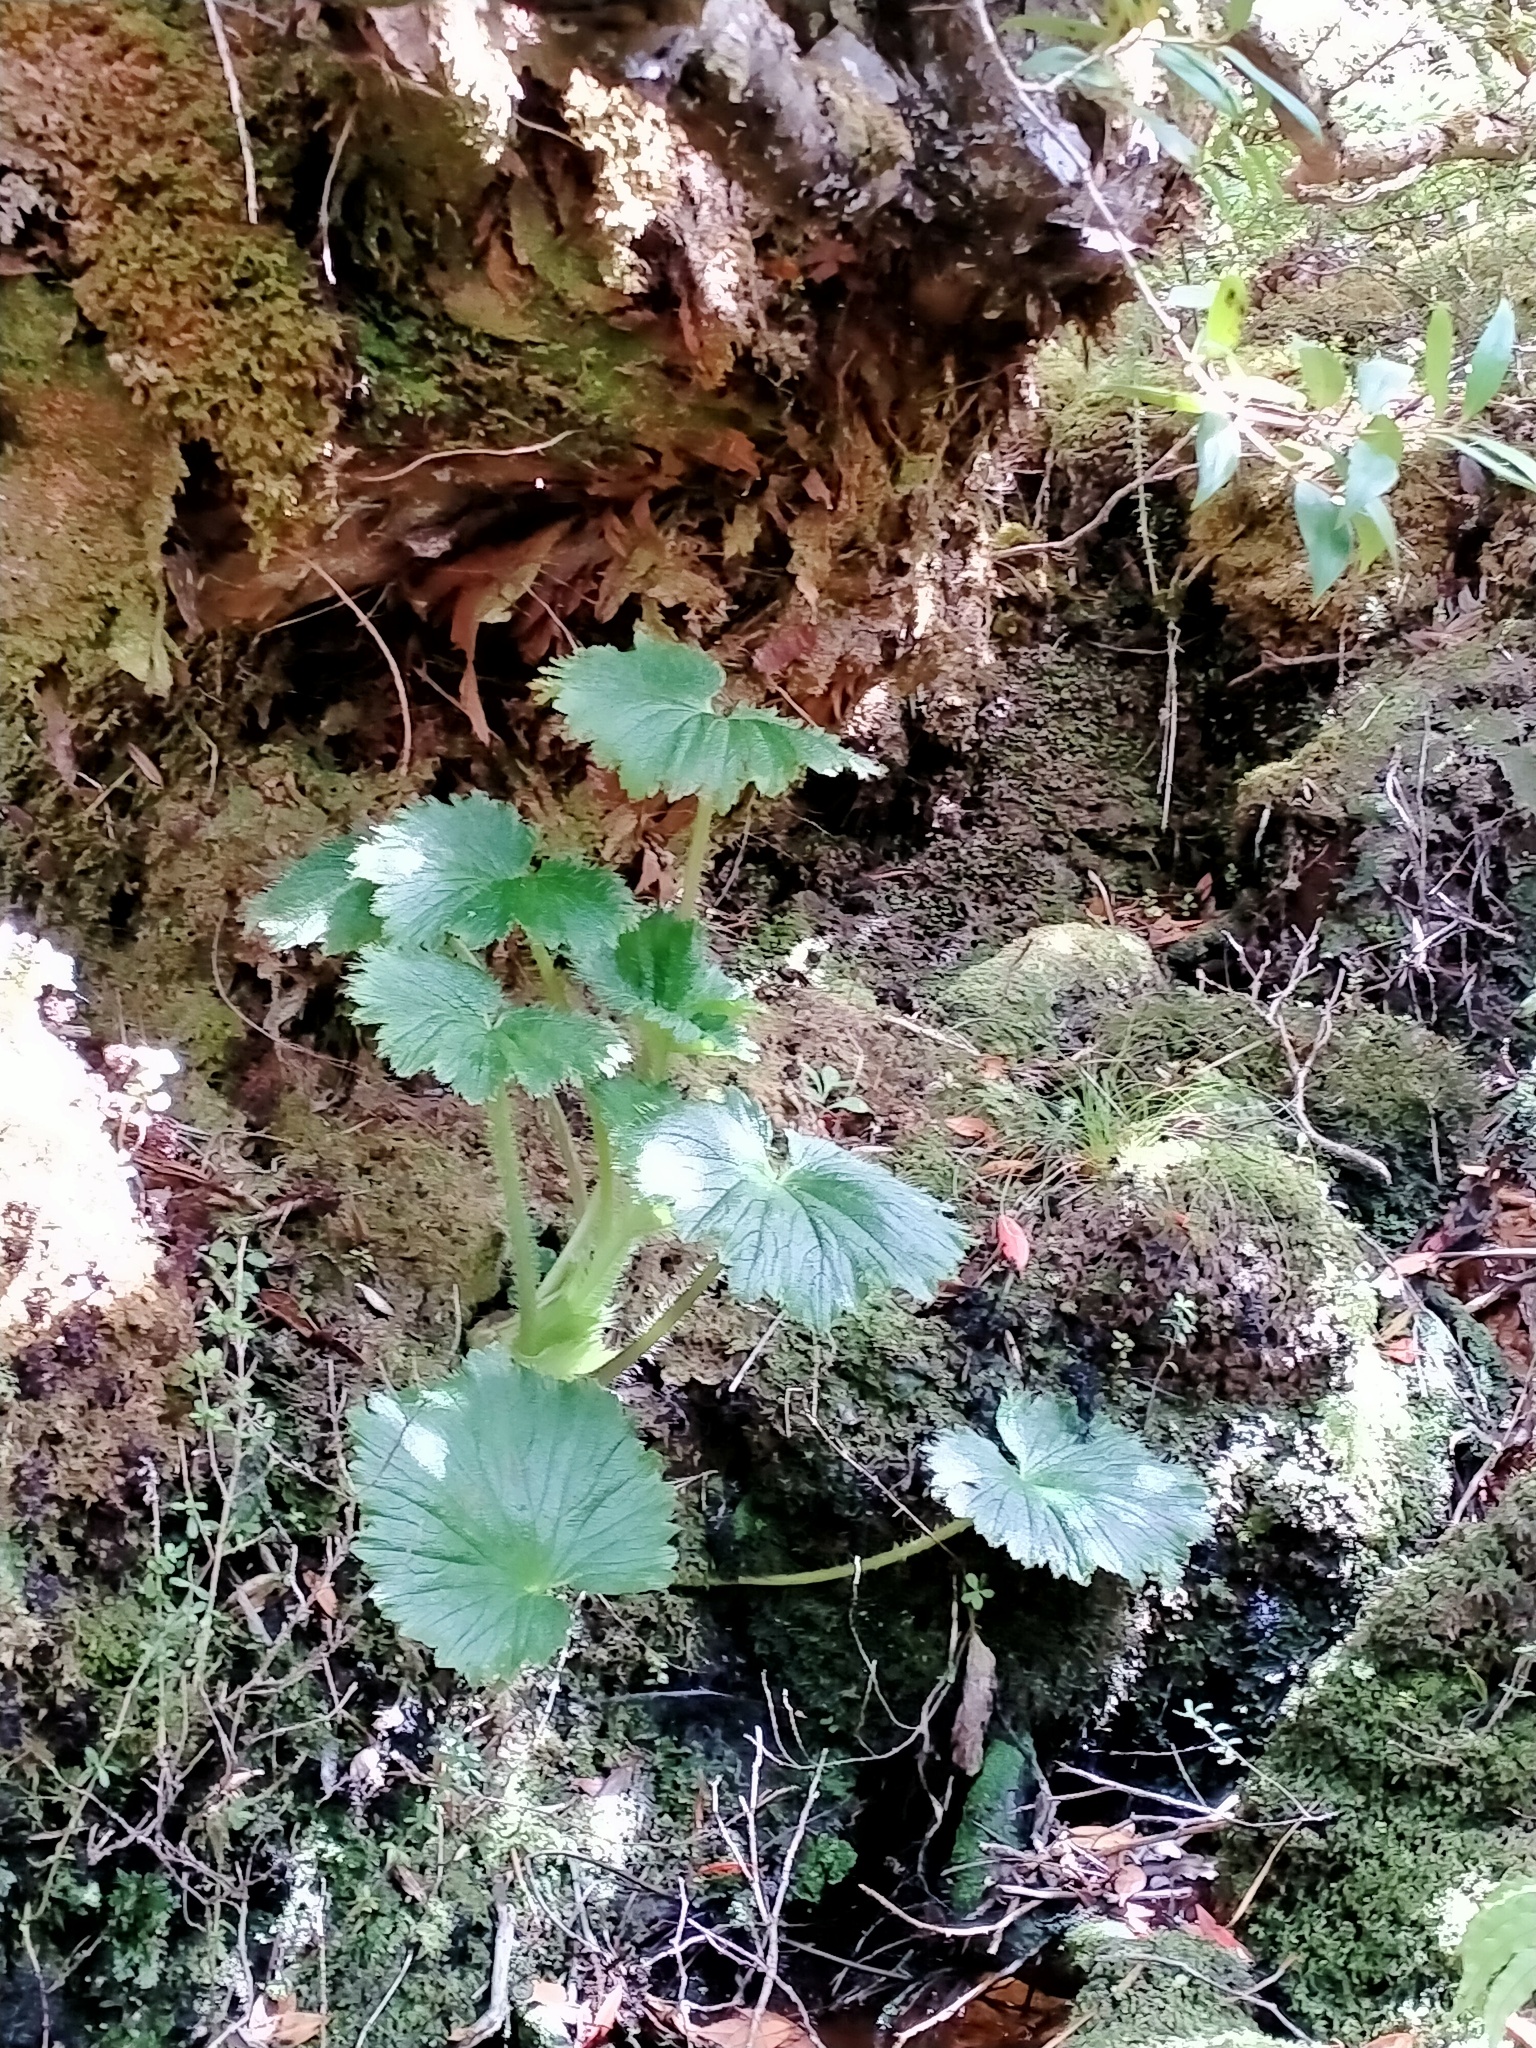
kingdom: Plantae
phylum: Tracheophyta
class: Magnoliopsida
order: Apiales
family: Apiaceae
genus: Azorella
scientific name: Azorella polaris
